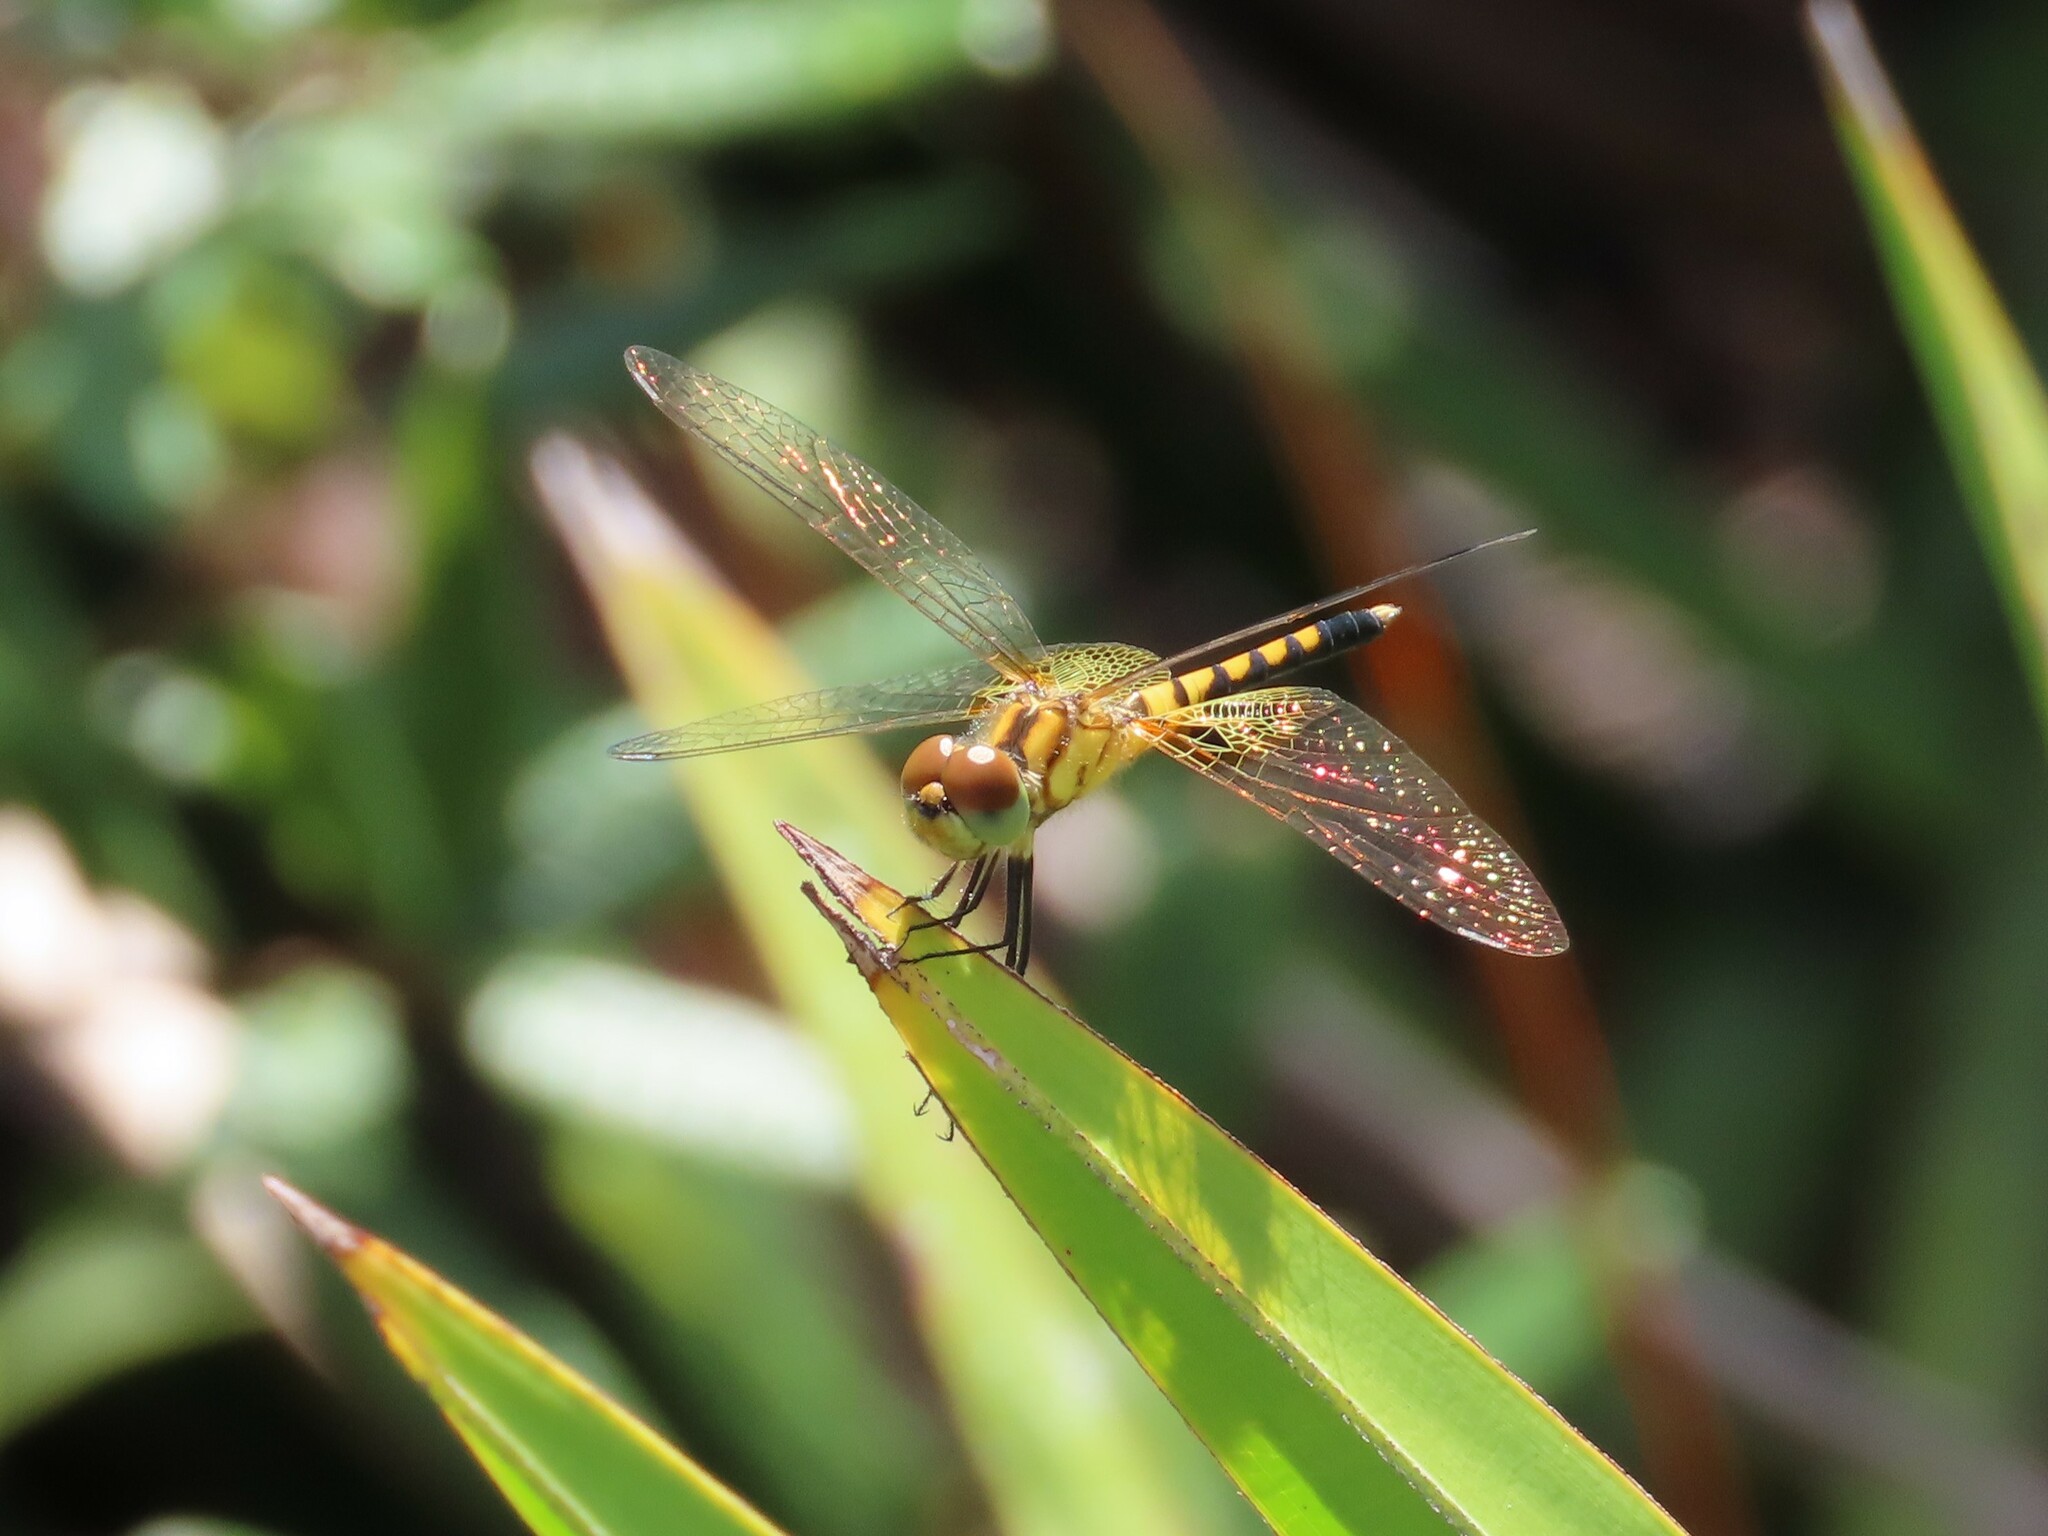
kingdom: Animalia
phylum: Arthropoda
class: Insecta
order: Odonata
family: Libellulidae
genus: Celithemis
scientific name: Celithemis amanda
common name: Amanda's pennant
